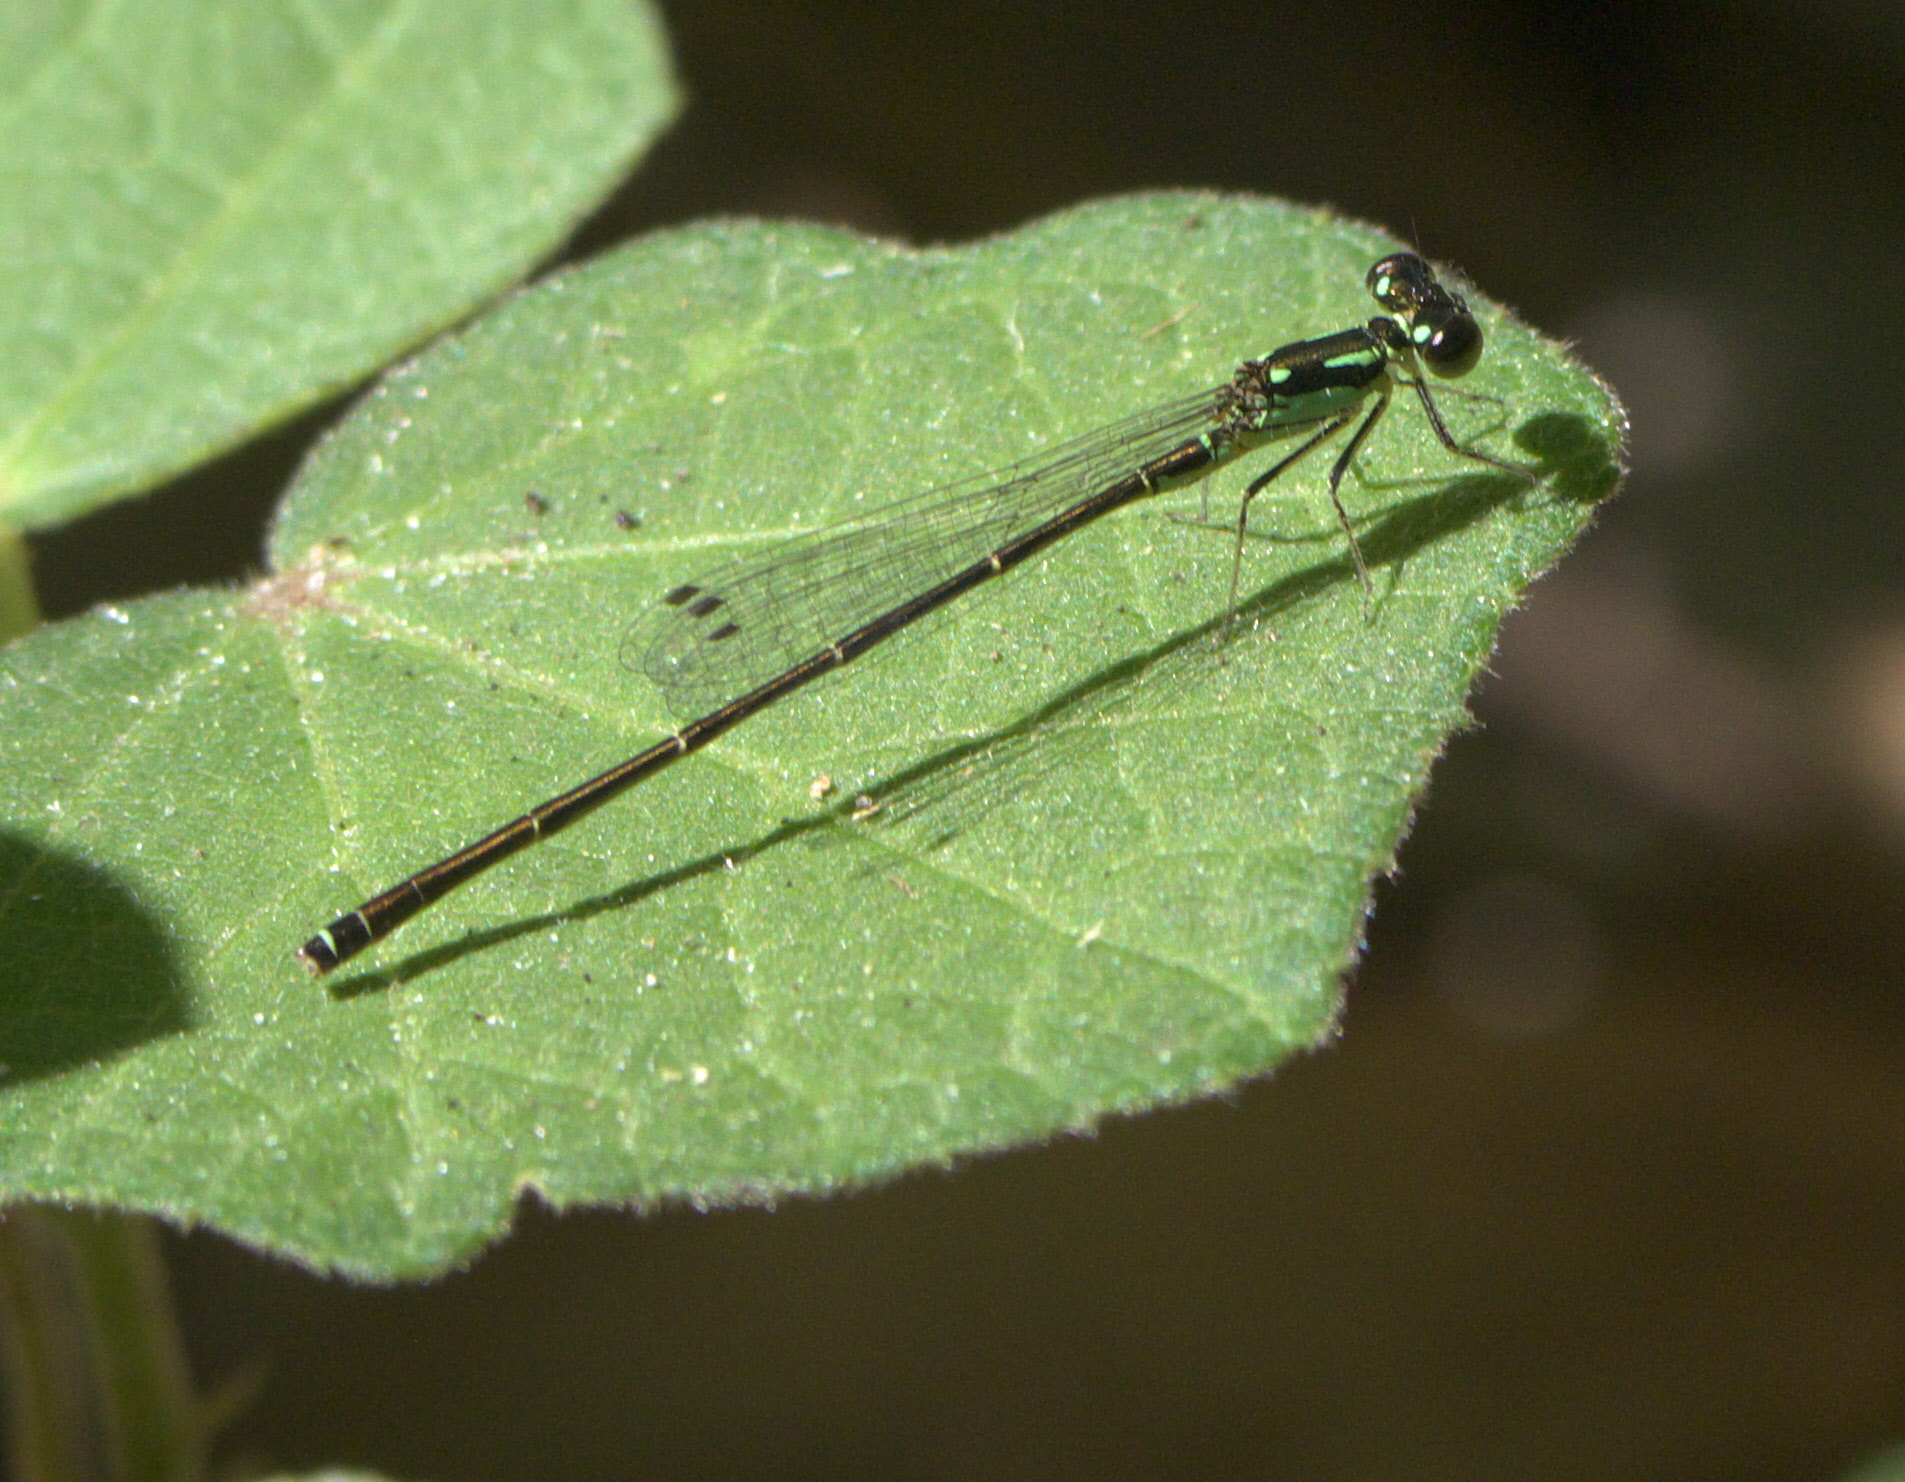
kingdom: Animalia
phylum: Arthropoda
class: Insecta
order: Odonata
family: Coenagrionidae
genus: Ischnura
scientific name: Ischnura posita
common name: Fragile forktail
